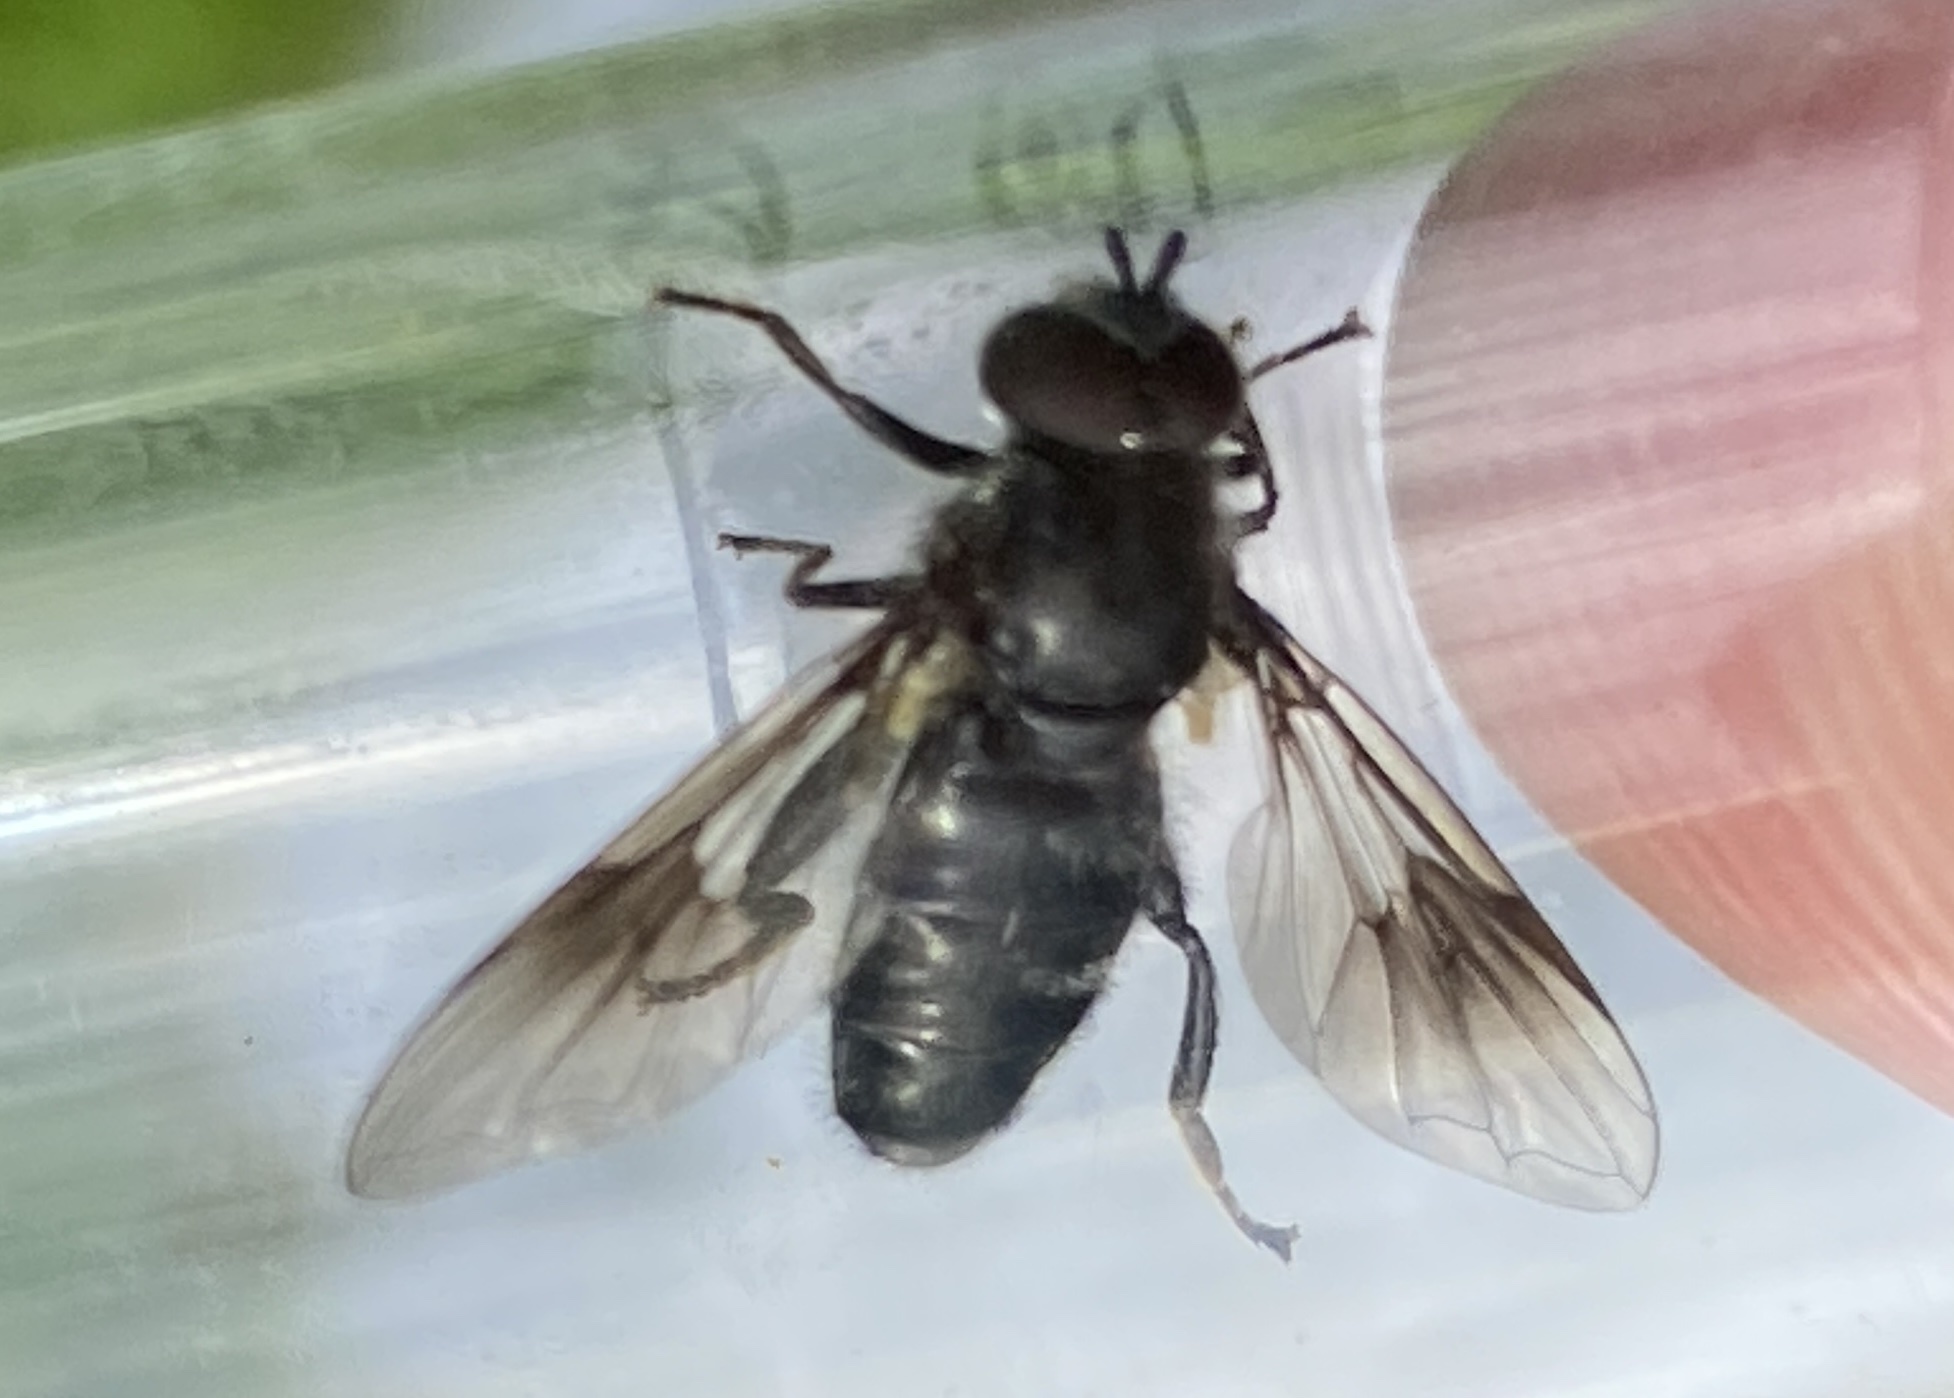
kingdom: Animalia
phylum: Arthropoda
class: Insecta
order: Diptera
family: Syrphidae
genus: Pipiza
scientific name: Pipiza festiva
